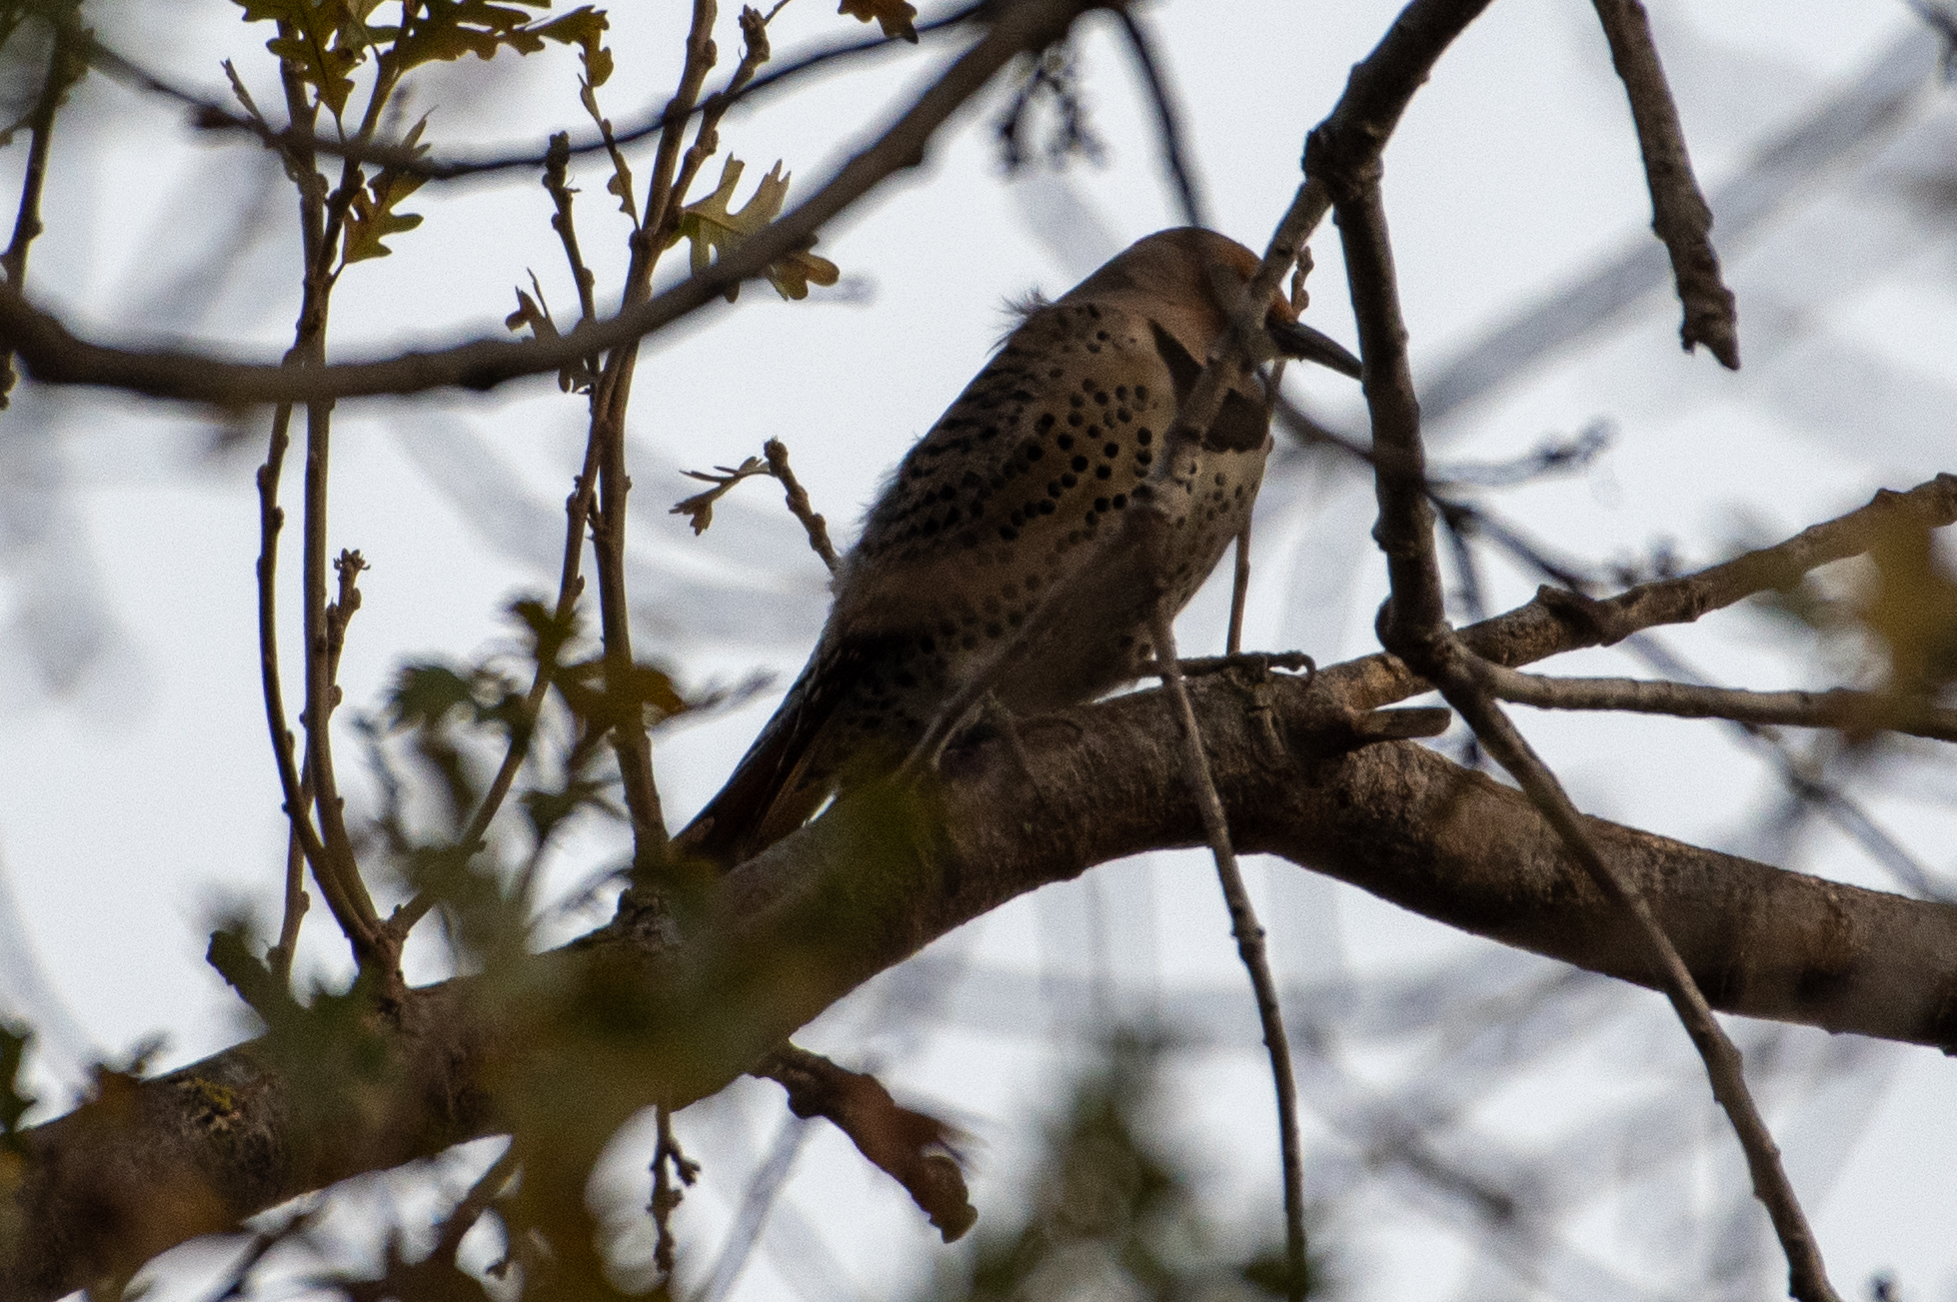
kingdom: Animalia
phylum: Chordata
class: Aves
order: Piciformes
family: Picidae
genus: Colaptes
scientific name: Colaptes auratus
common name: Northern flicker
